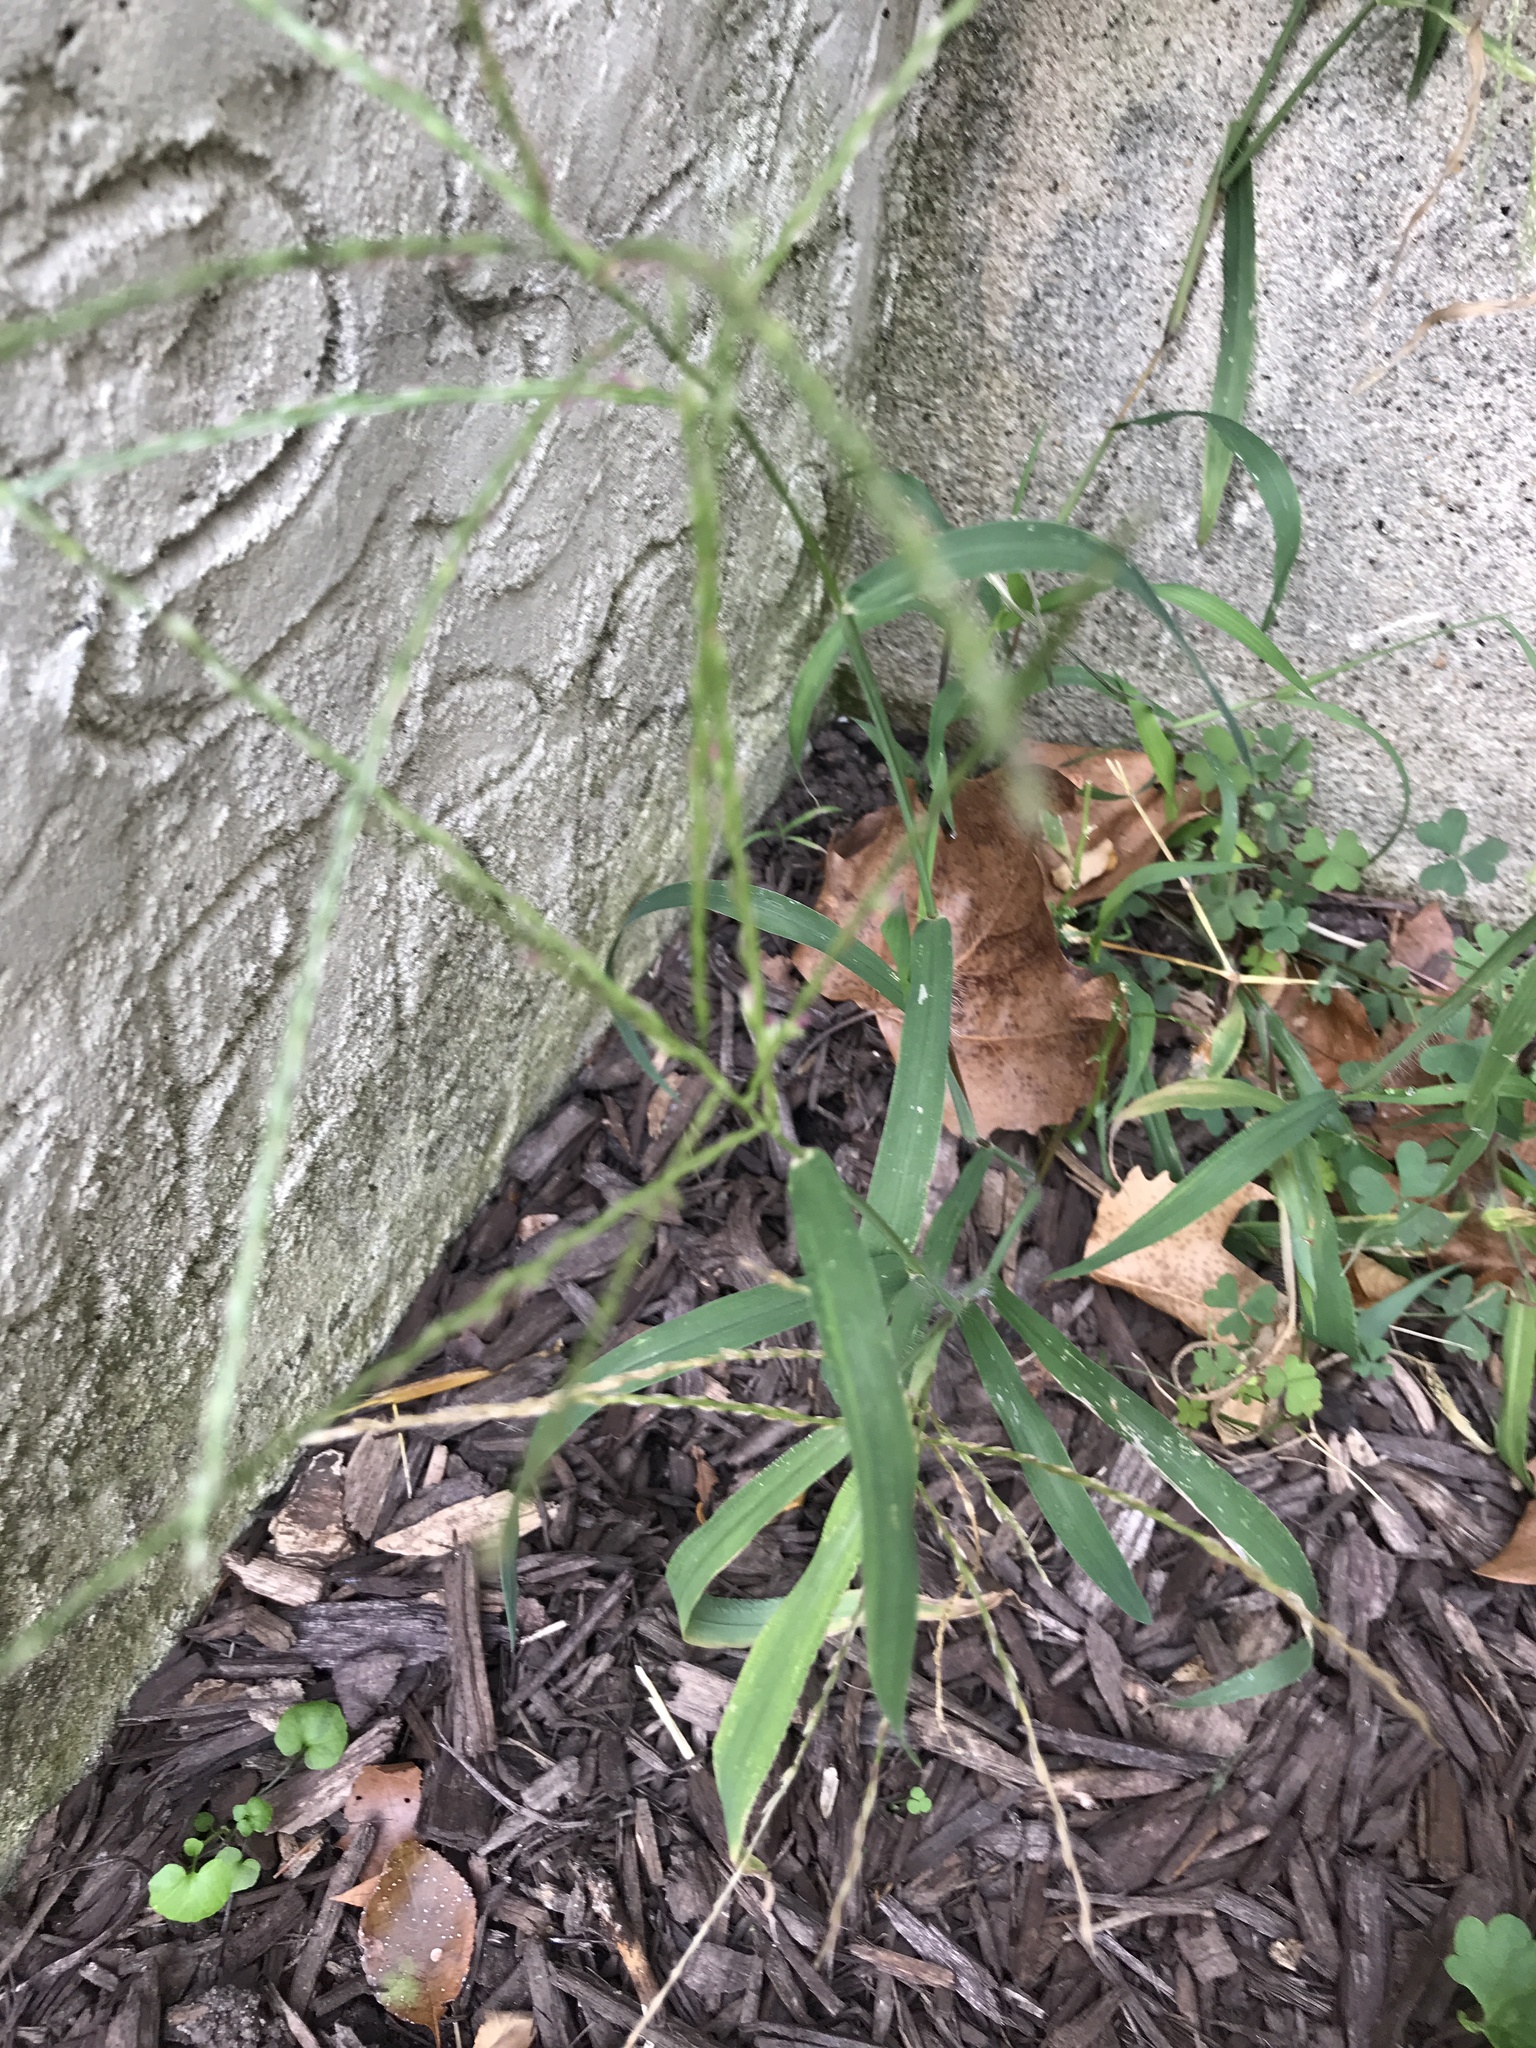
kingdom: Plantae
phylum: Tracheophyta
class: Liliopsida
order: Poales
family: Poaceae
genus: Digitaria
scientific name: Digitaria sanguinalis
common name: Hairy crabgrass
